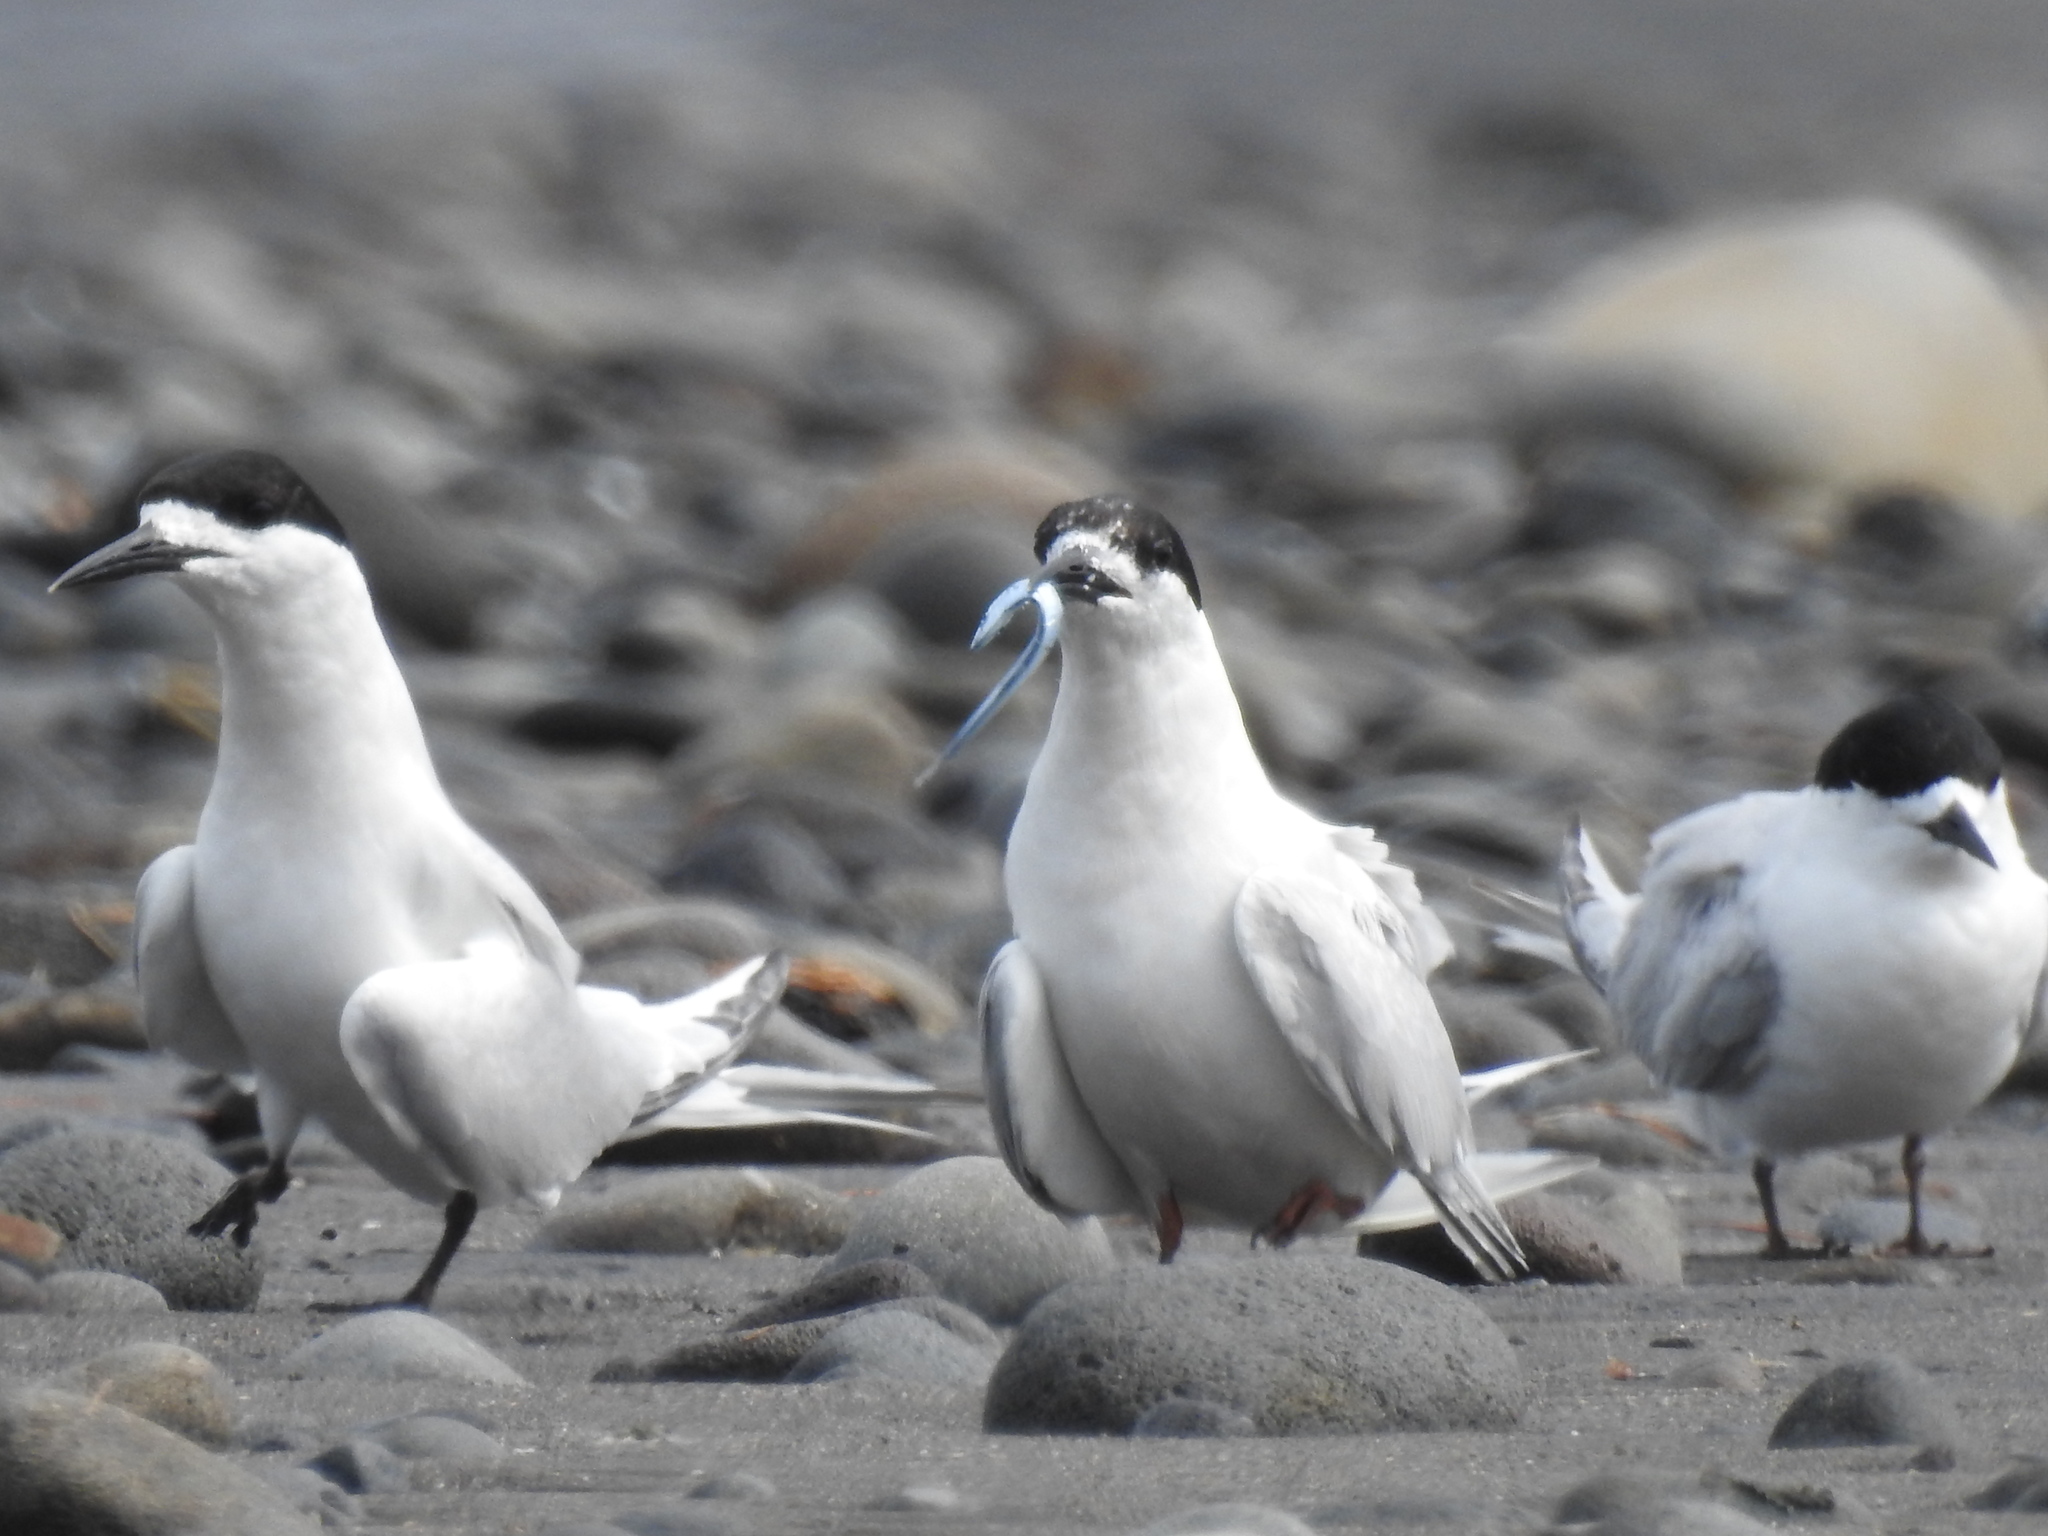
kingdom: Animalia
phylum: Chordata
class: Aves
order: Charadriiformes
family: Laridae
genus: Sterna
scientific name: Sterna striata
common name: White-fronted tern
